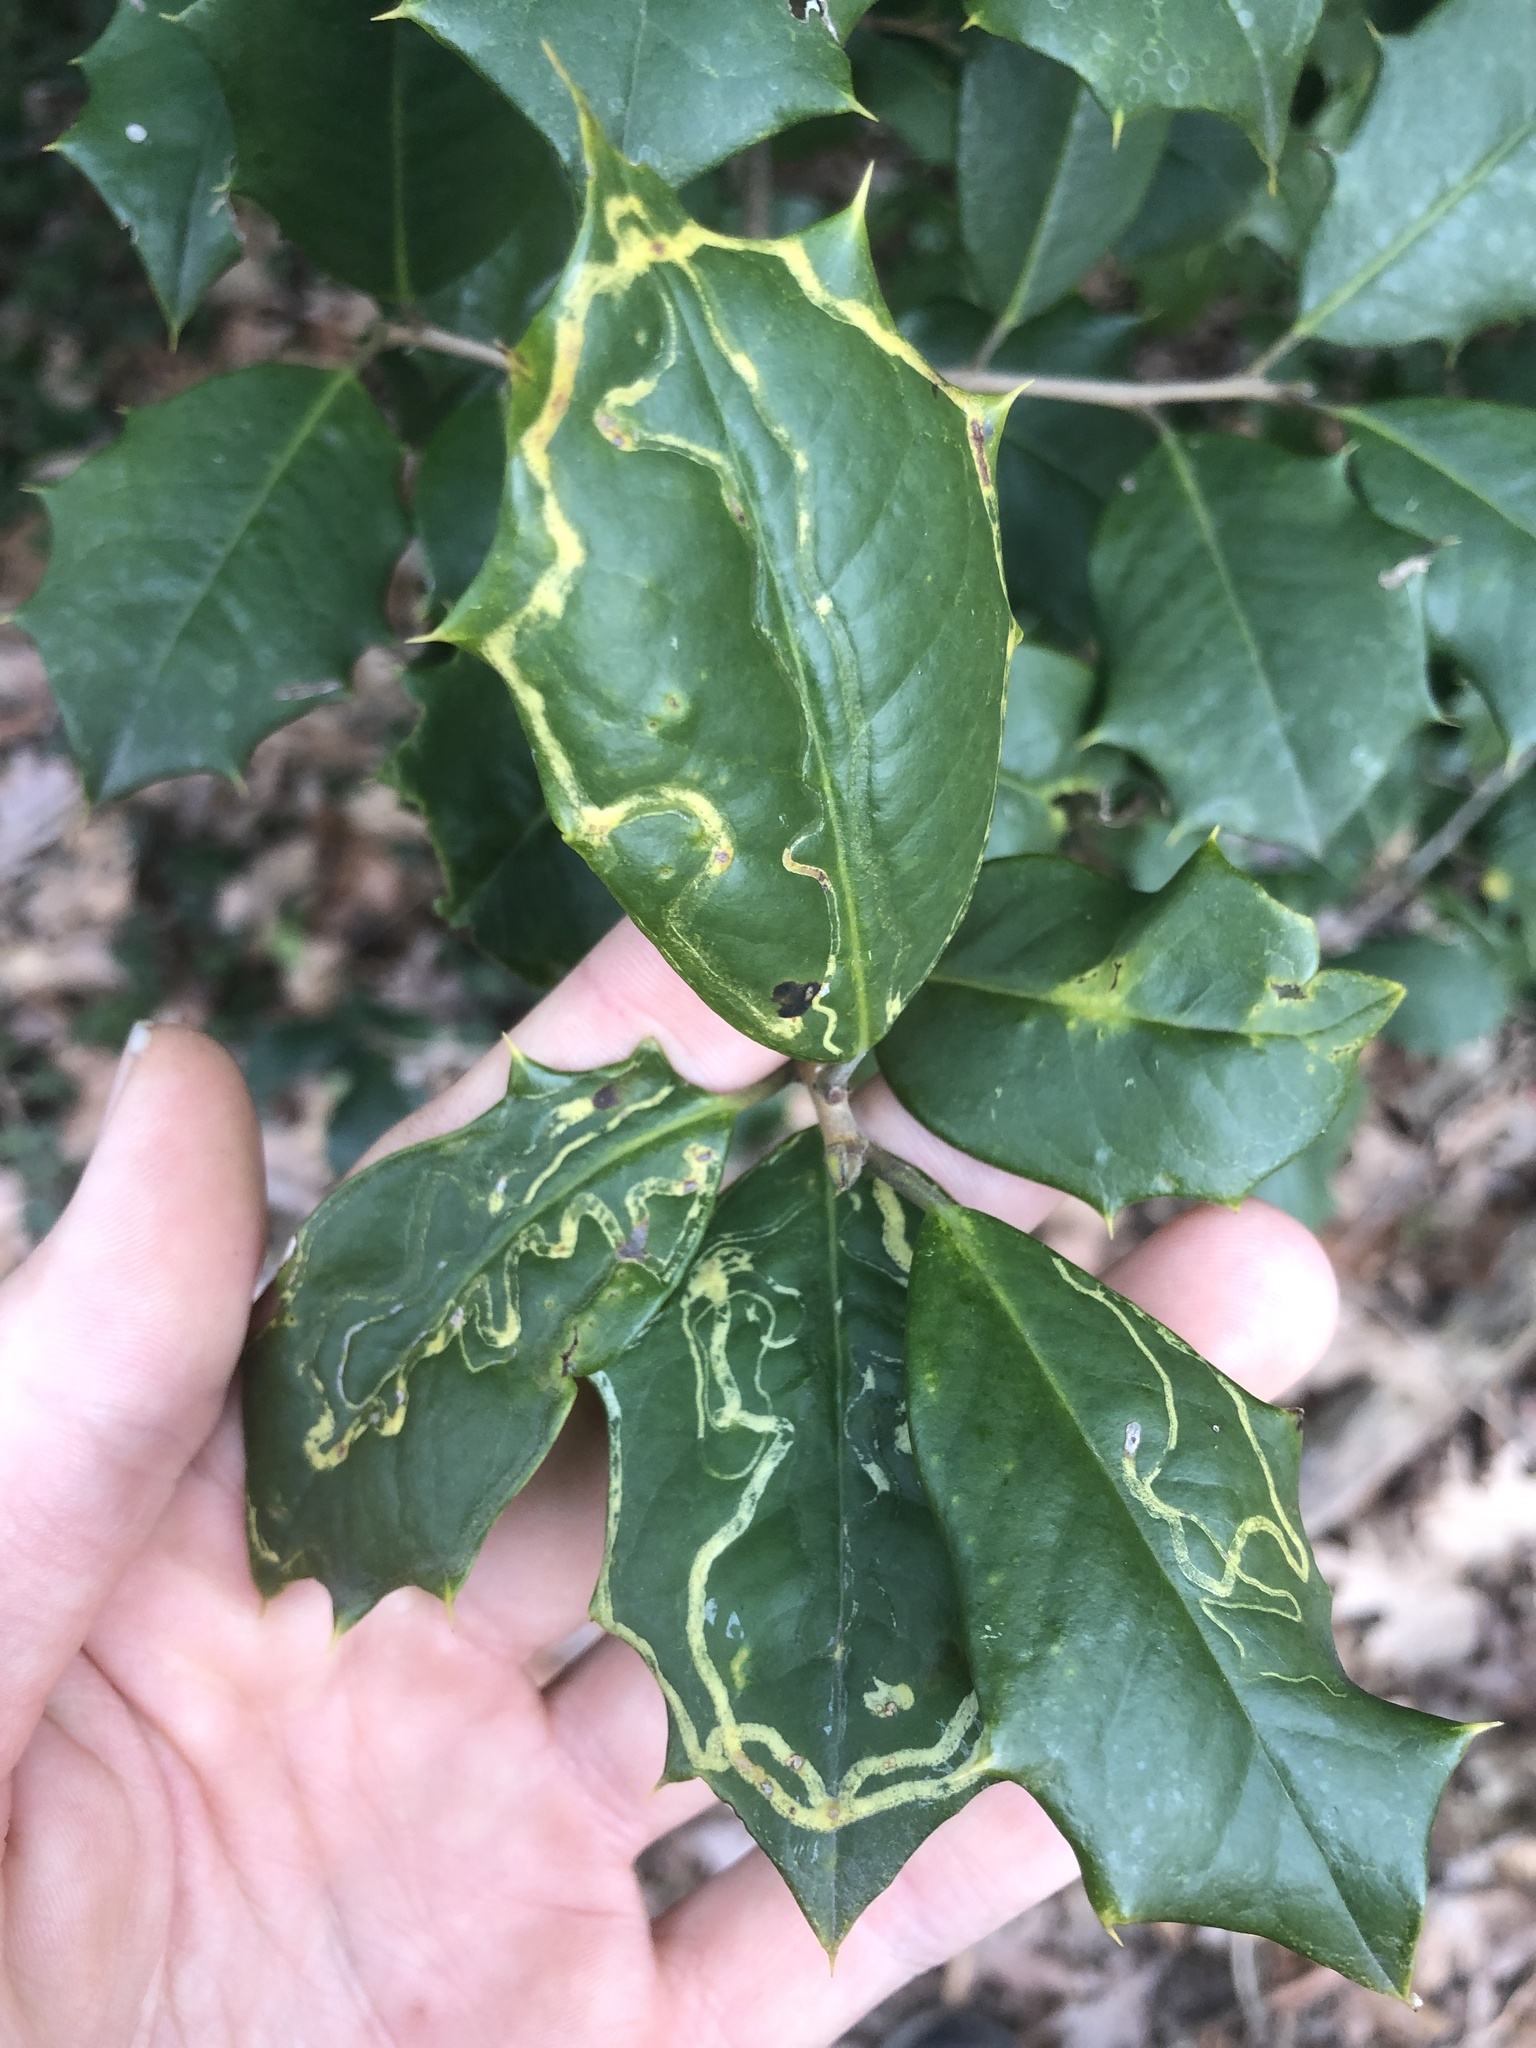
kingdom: Animalia
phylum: Arthropoda
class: Insecta
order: Diptera
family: Agromyzidae
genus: Phytomyza
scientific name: Phytomyza opacae
